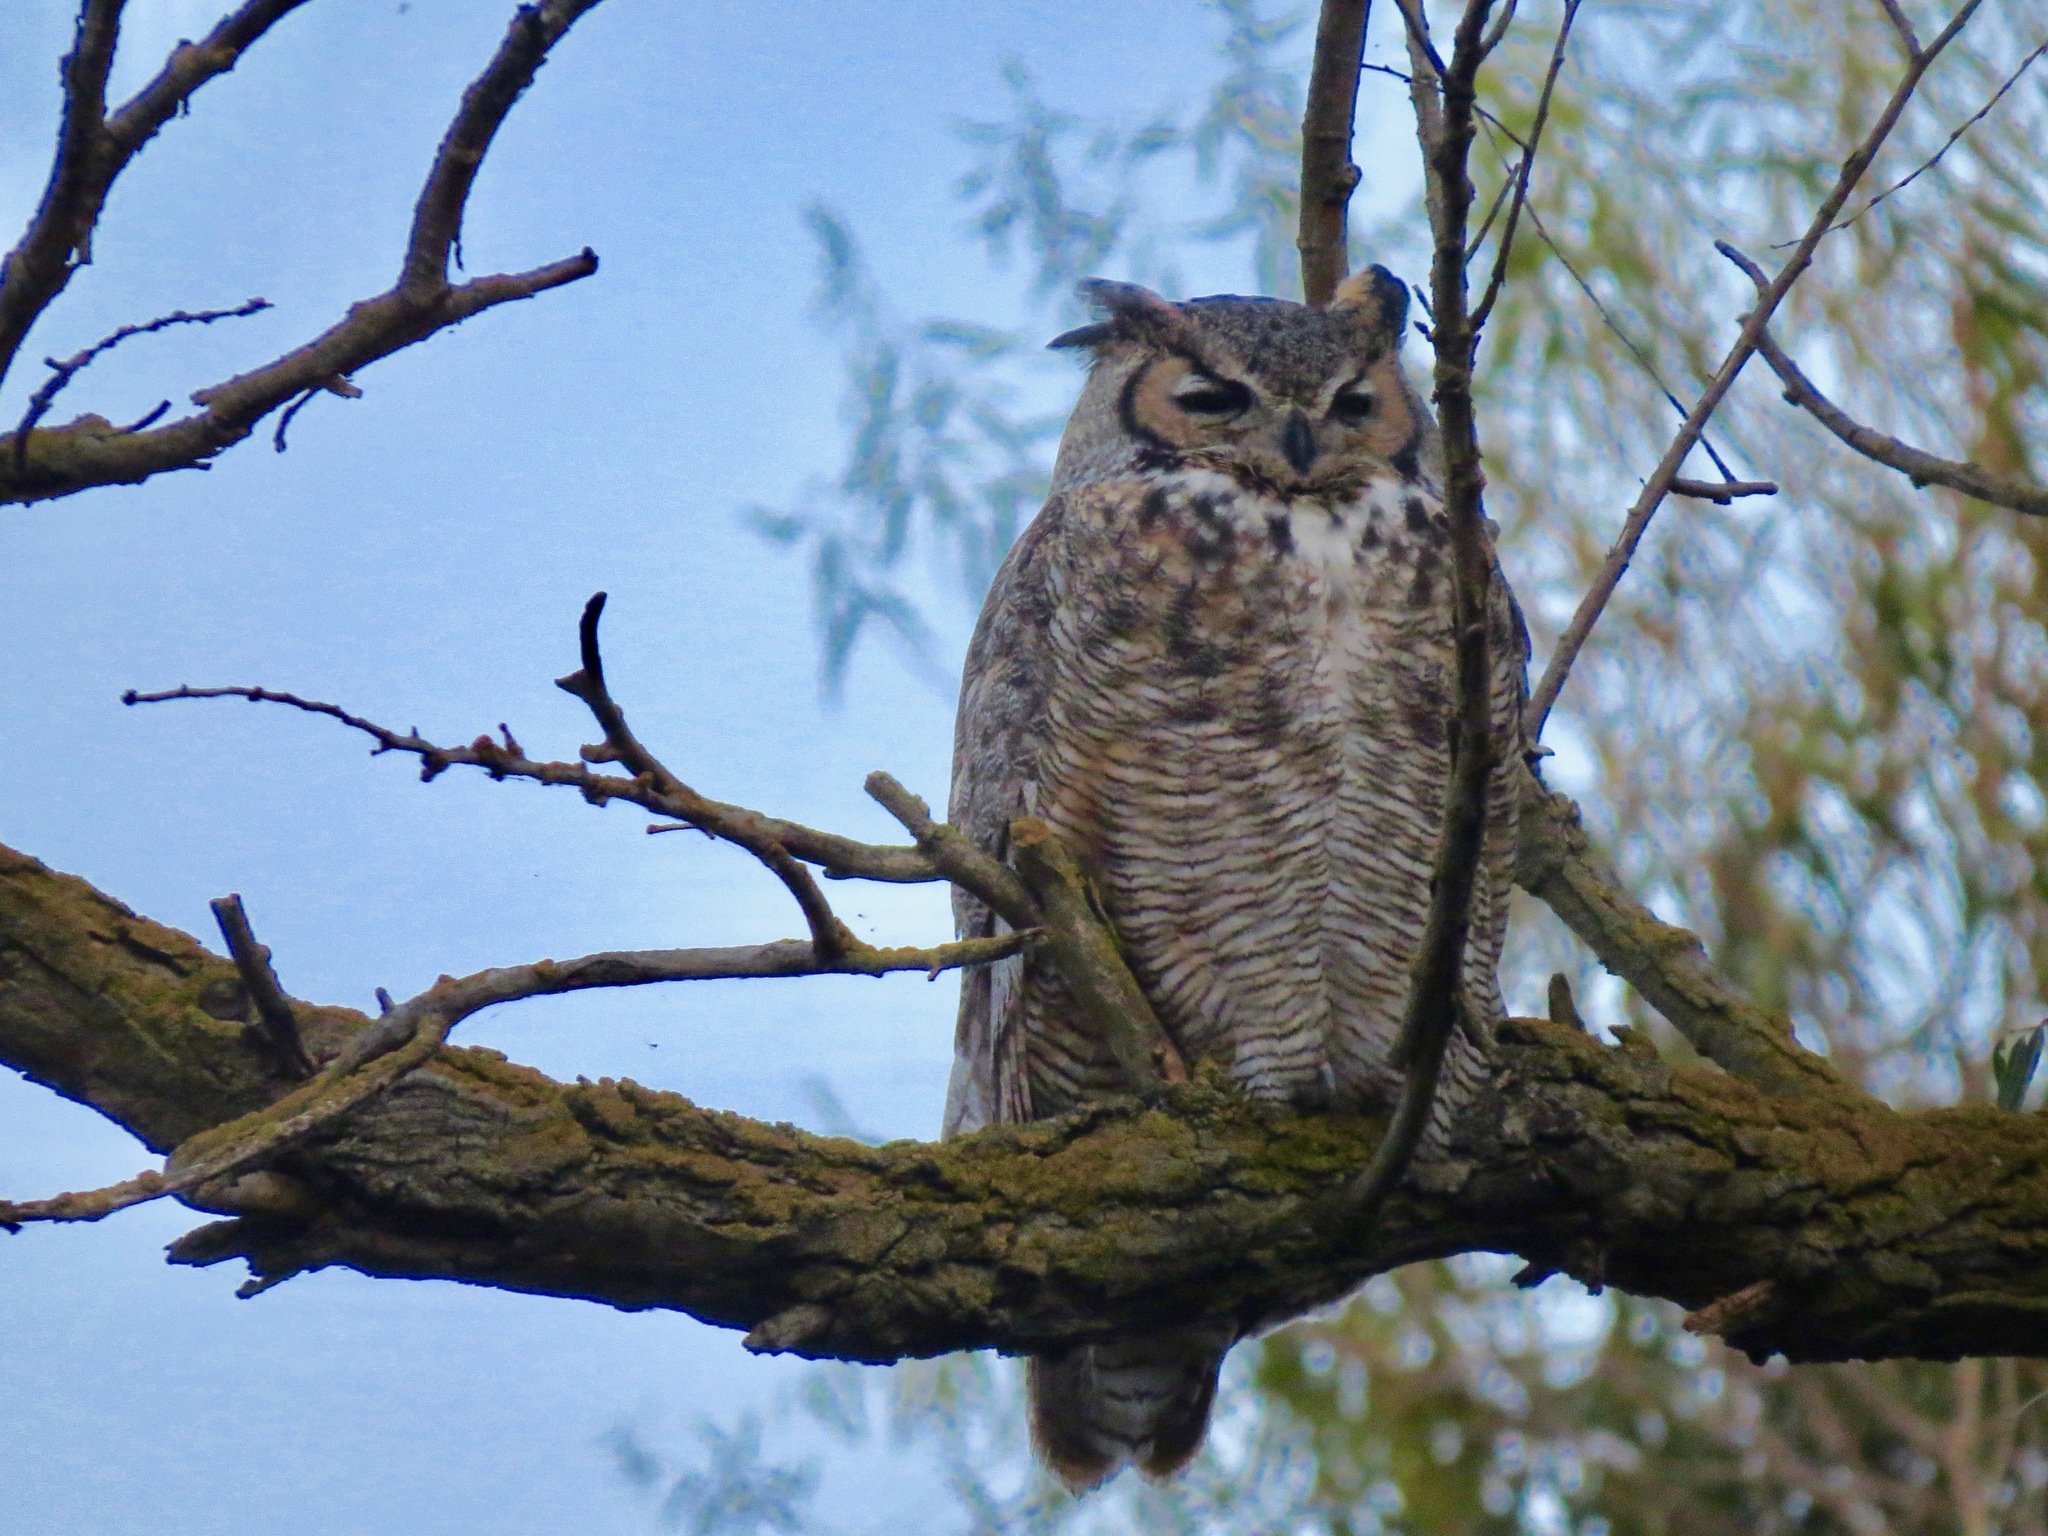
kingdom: Animalia
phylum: Chordata
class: Aves
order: Strigiformes
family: Strigidae
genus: Bubo
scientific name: Bubo virginianus
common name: Great horned owl
